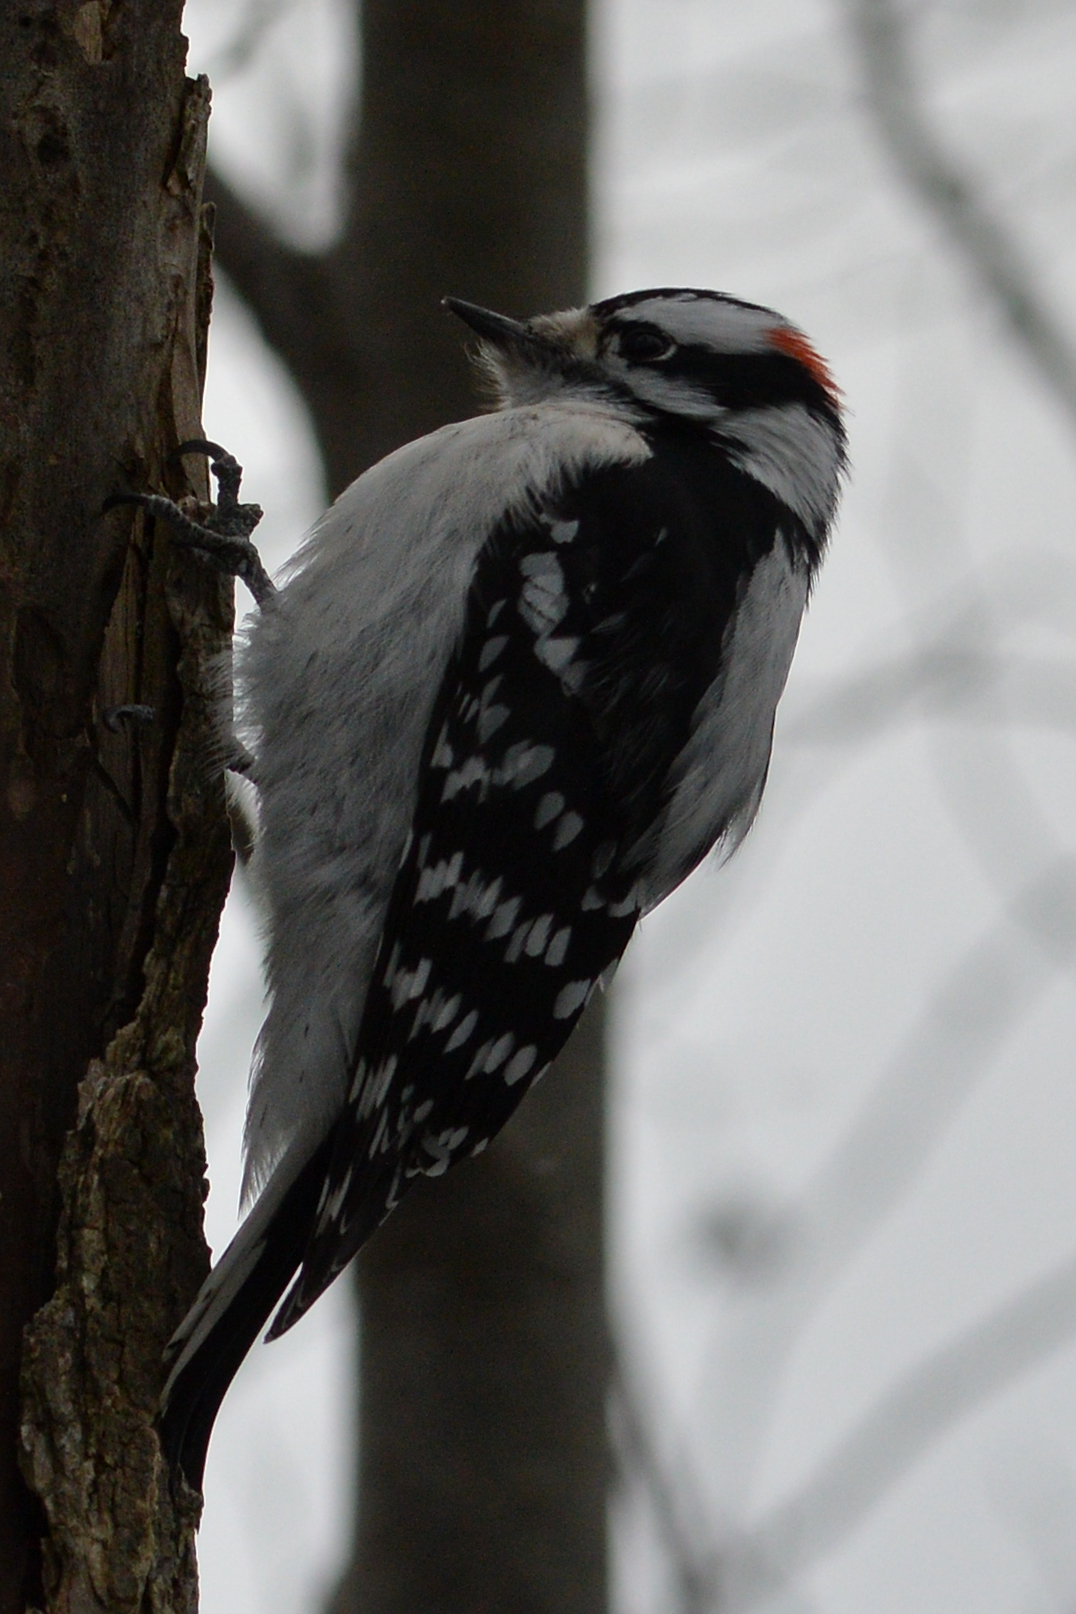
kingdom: Animalia
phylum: Chordata
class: Aves
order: Piciformes
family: Picidae
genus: Dryobates
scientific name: Dryobates pubescens
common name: Downy woodpecker
